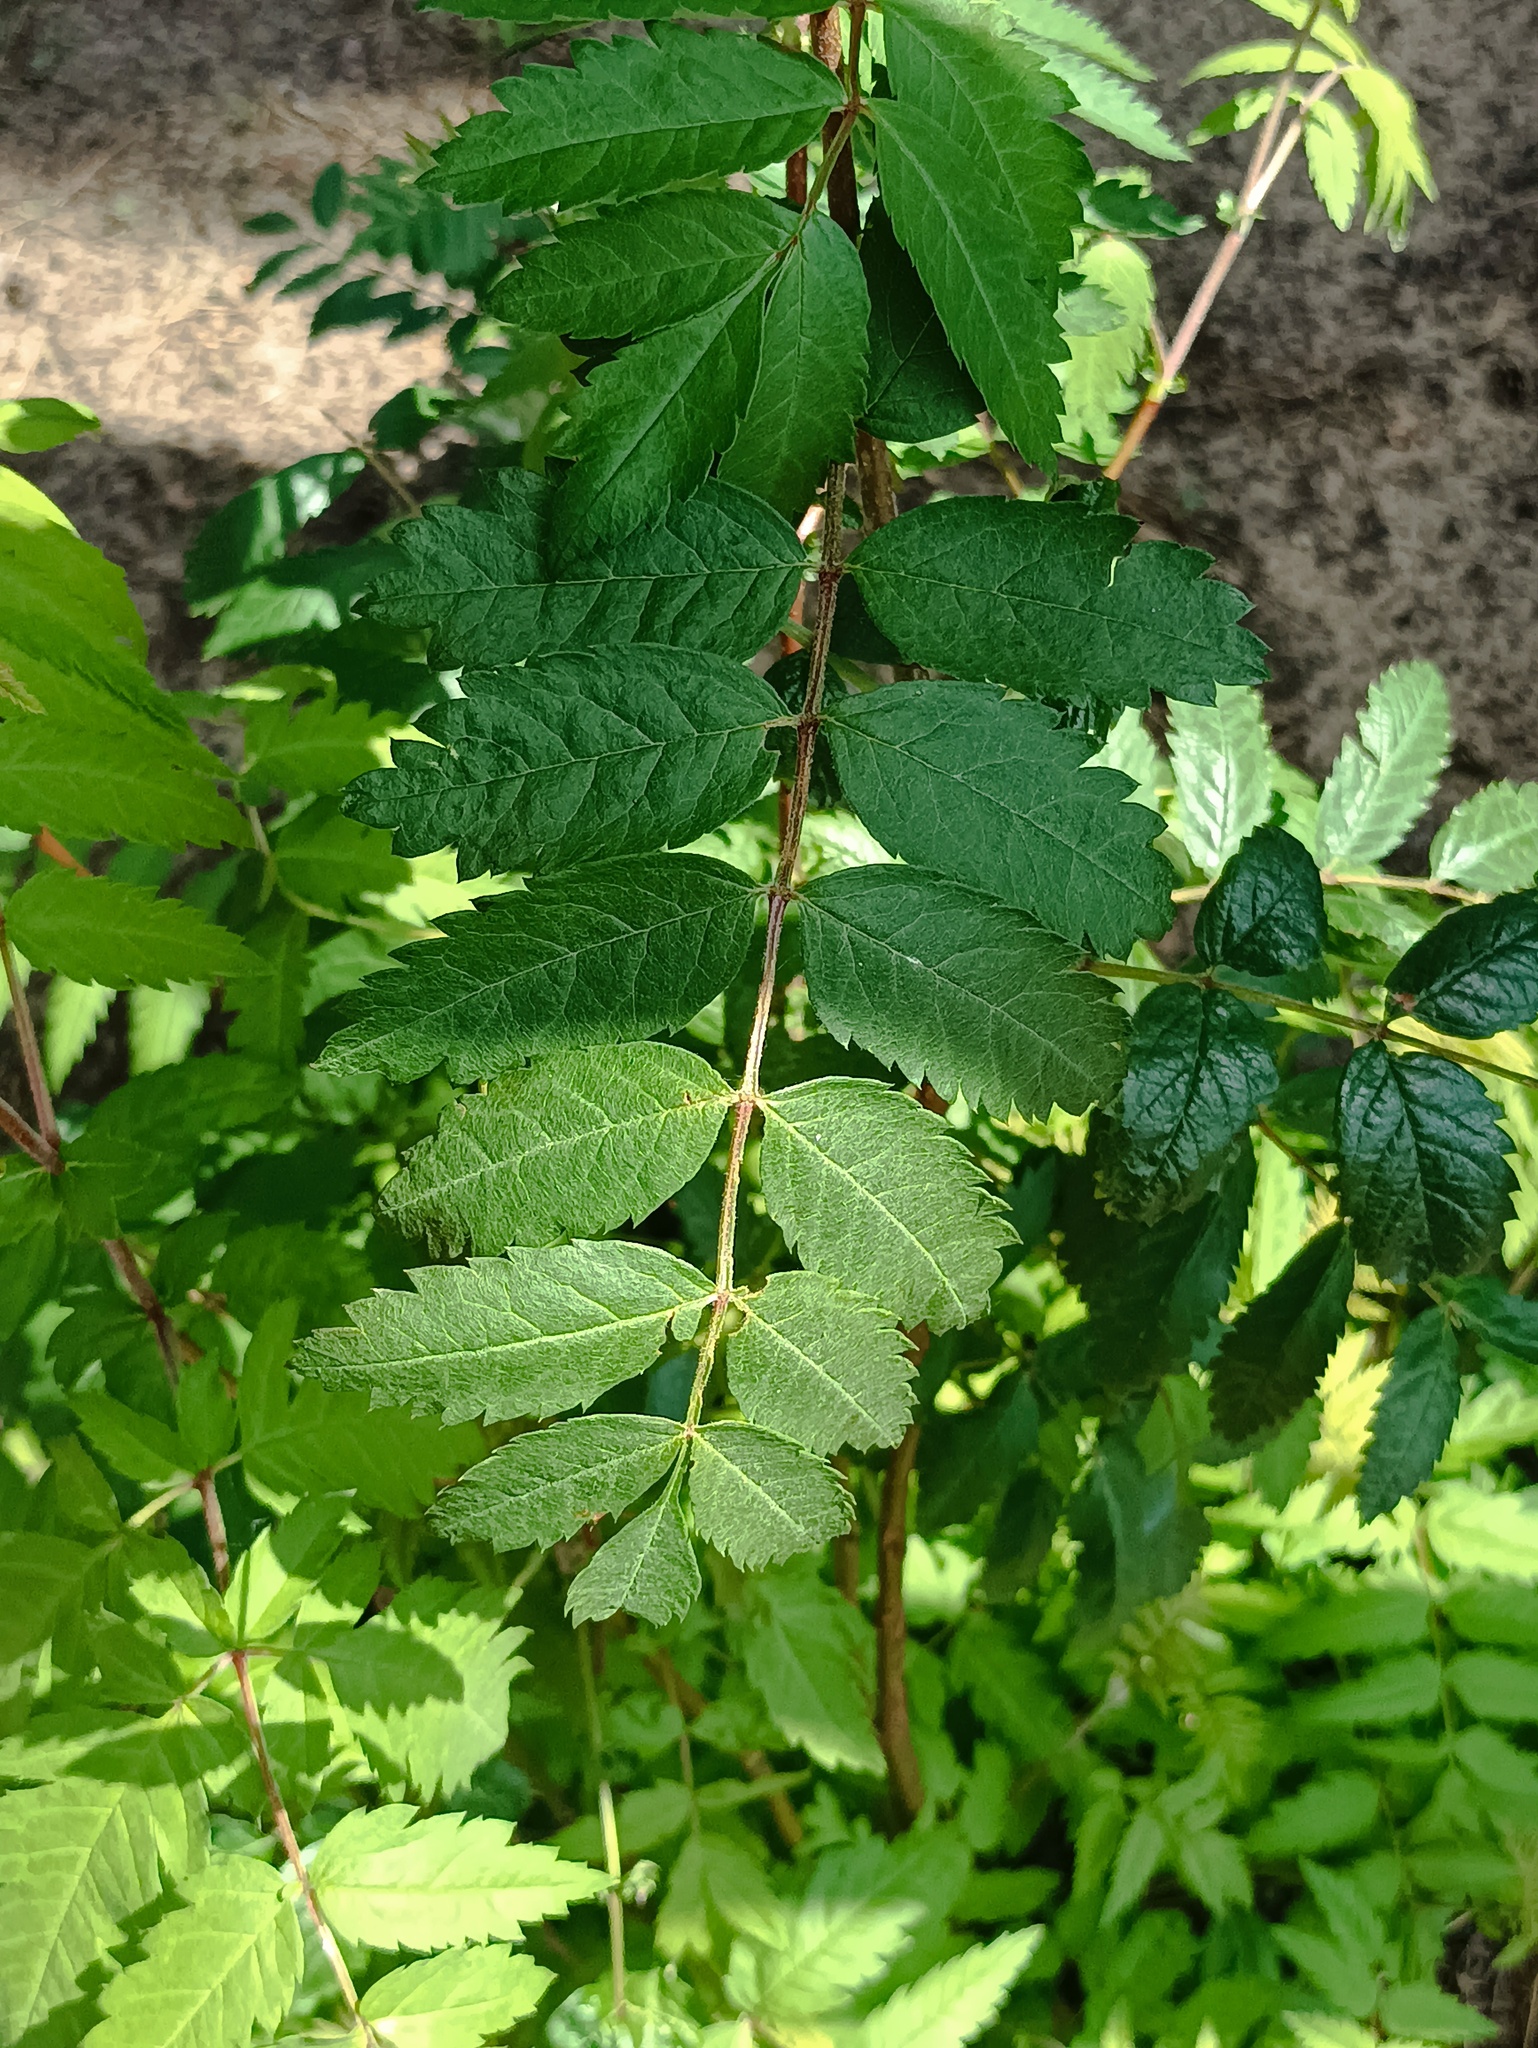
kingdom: Plantae
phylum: Tracheophyta
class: Magnoliopsida
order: Rosales
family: Rosaceae
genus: Sorbus
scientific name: Sorbus aucuparia
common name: Rowan
